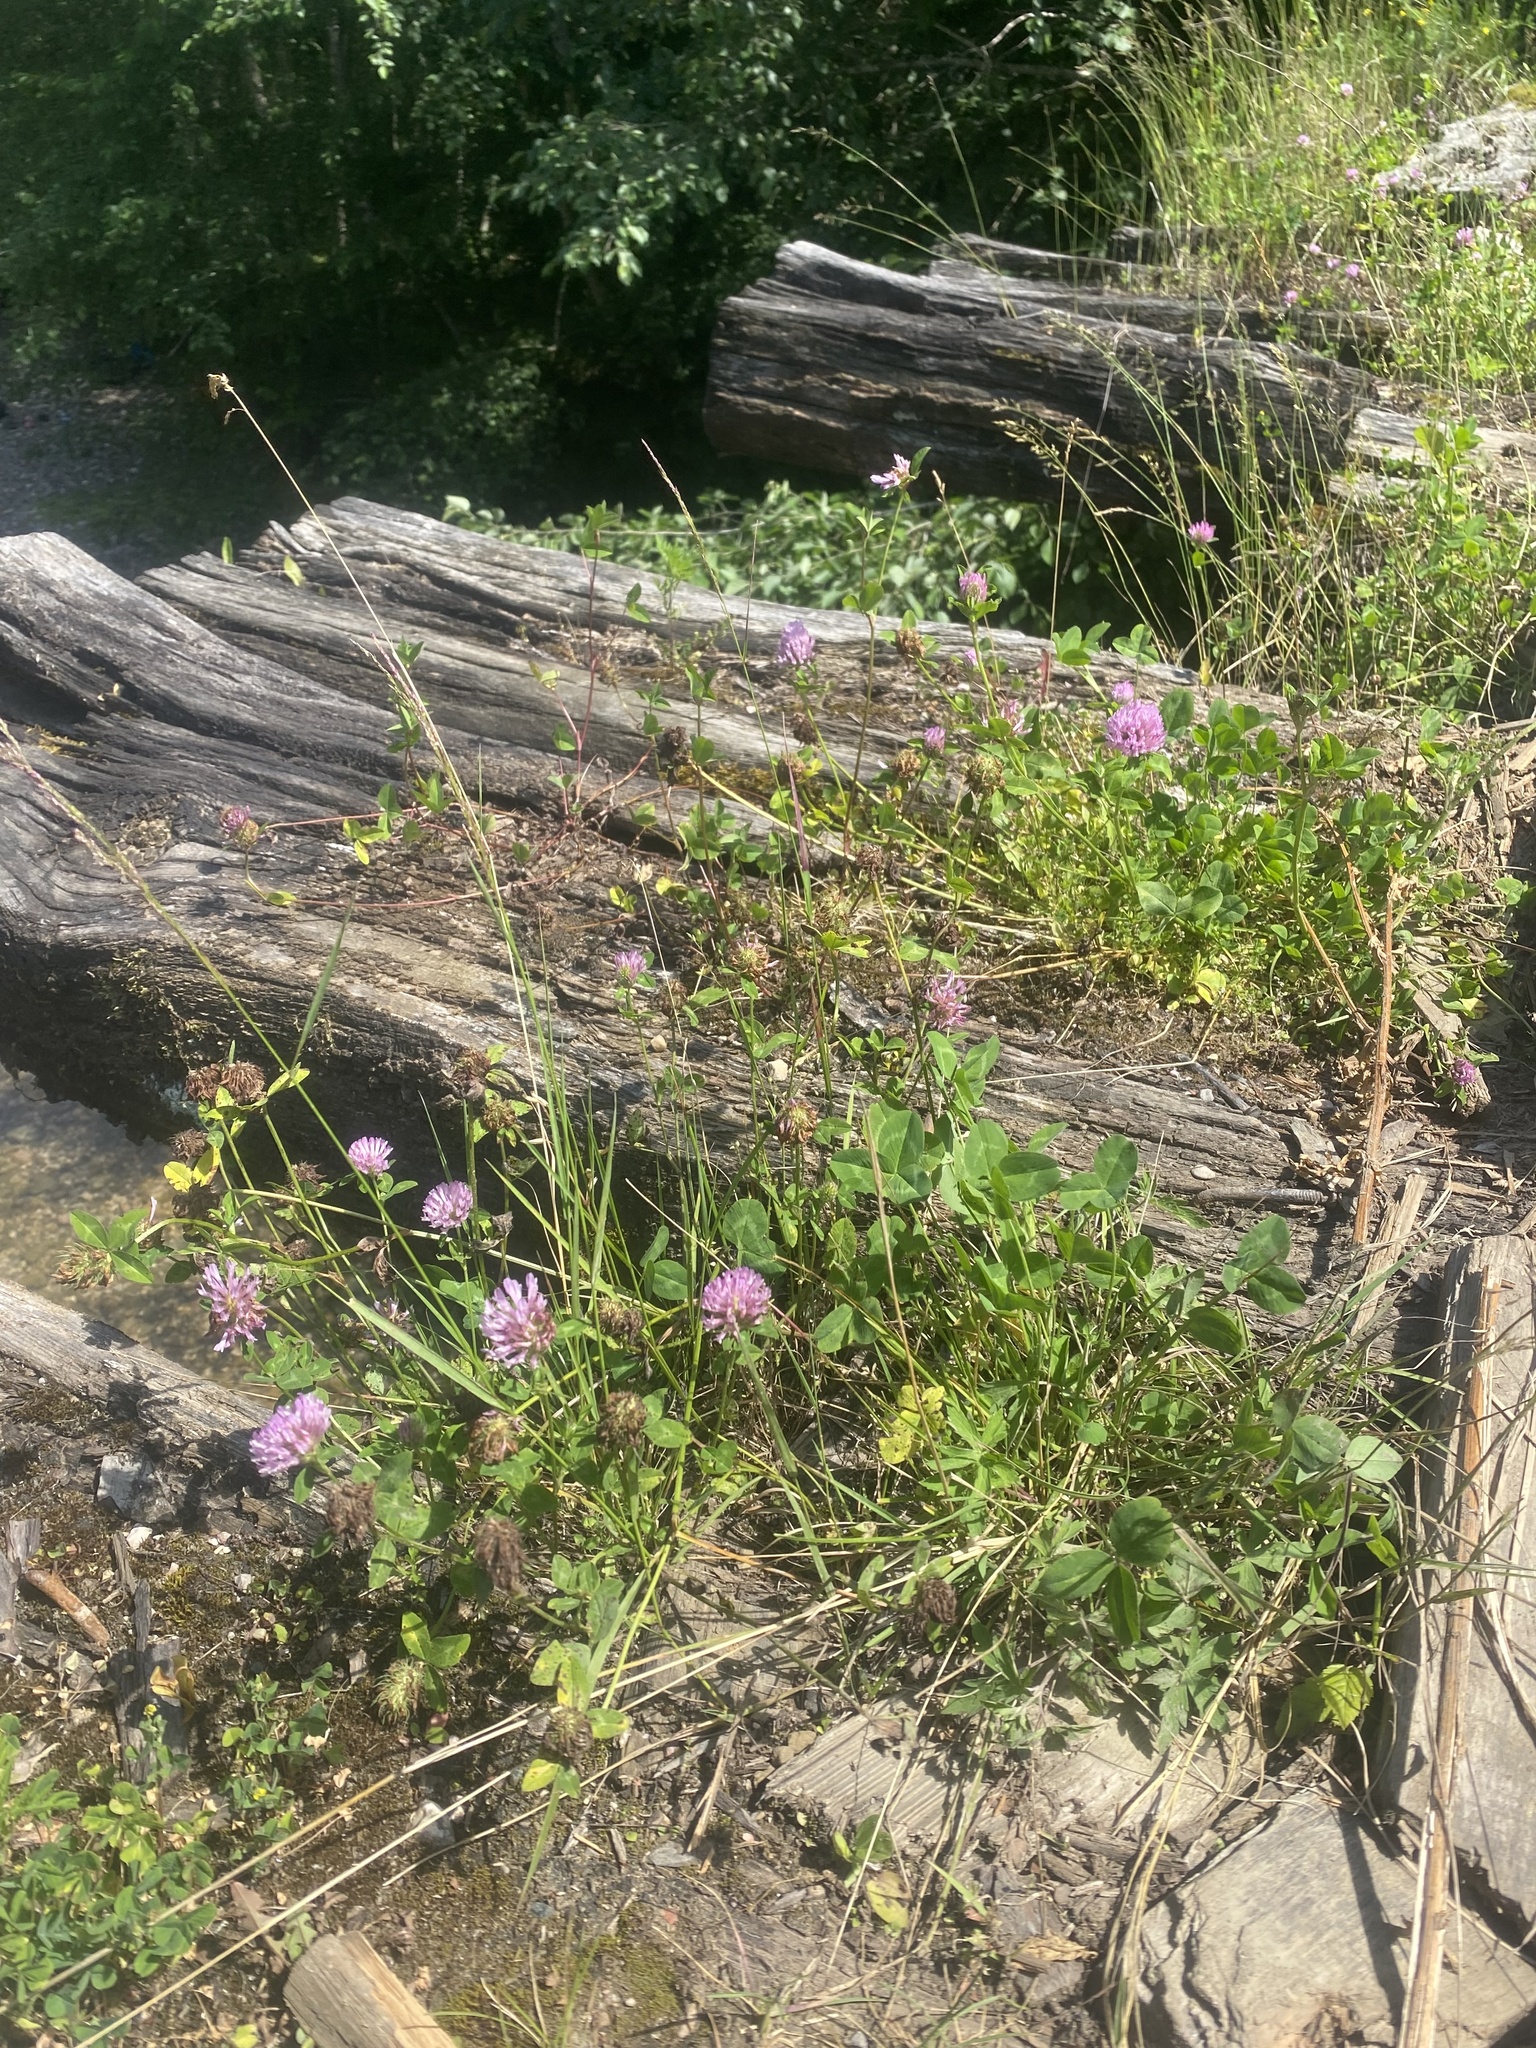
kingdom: Plantae
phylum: Tracheophyta
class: Magnoliopsida
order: Fabales
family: Fabaceae
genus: Trifolium
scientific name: Trifolium pratense
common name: Red clover
